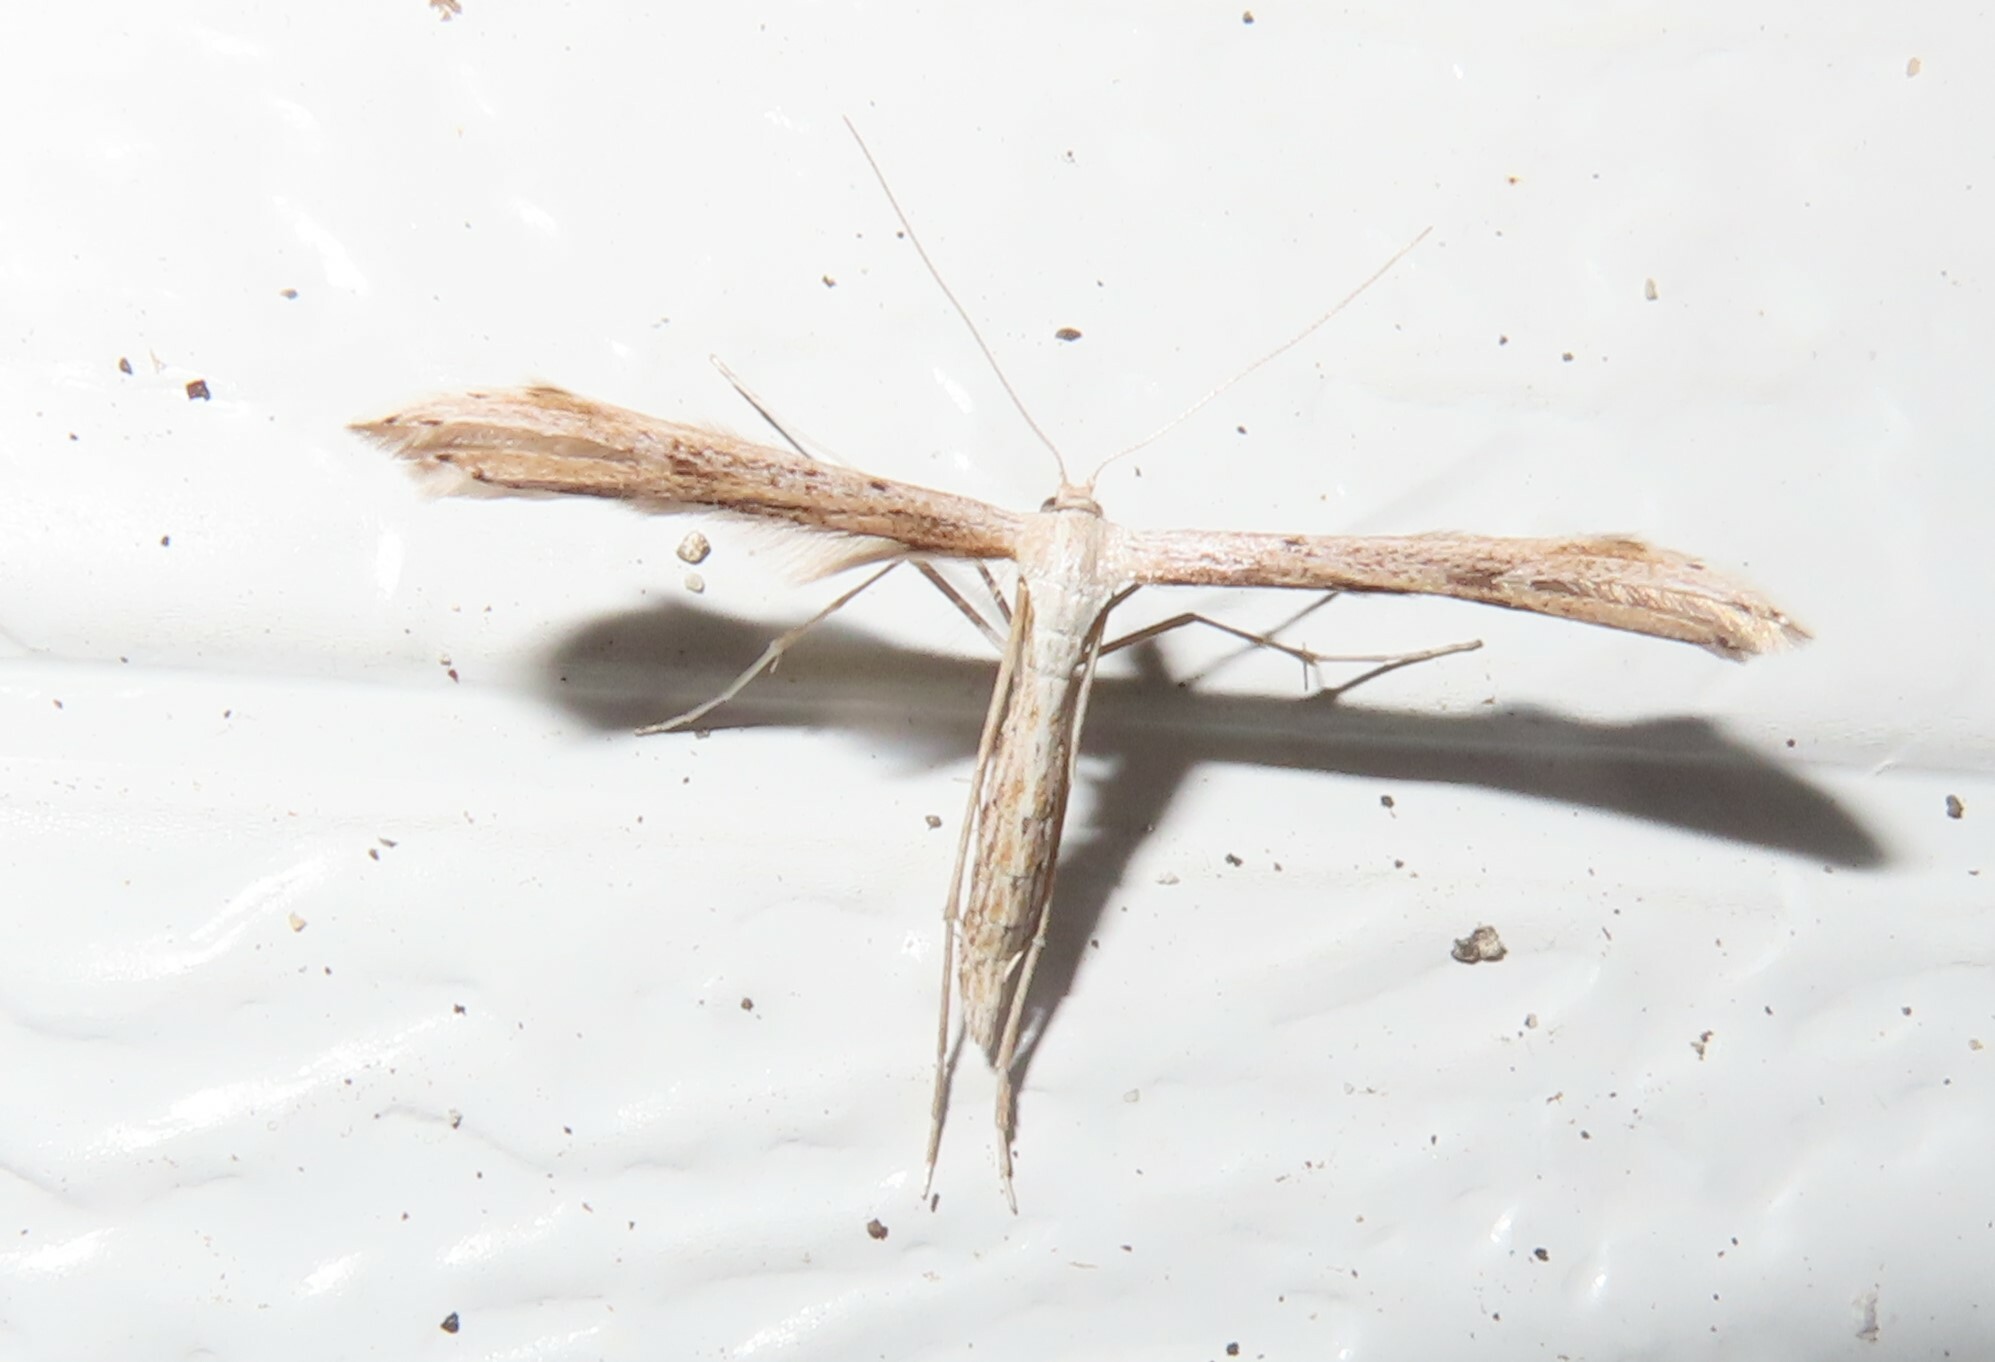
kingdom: Animalia
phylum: Arthropoda
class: Insecta
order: Lepidoptera
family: Pterophoridae
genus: Emmelina
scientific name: Emmelina monodactyla
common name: Common plume
